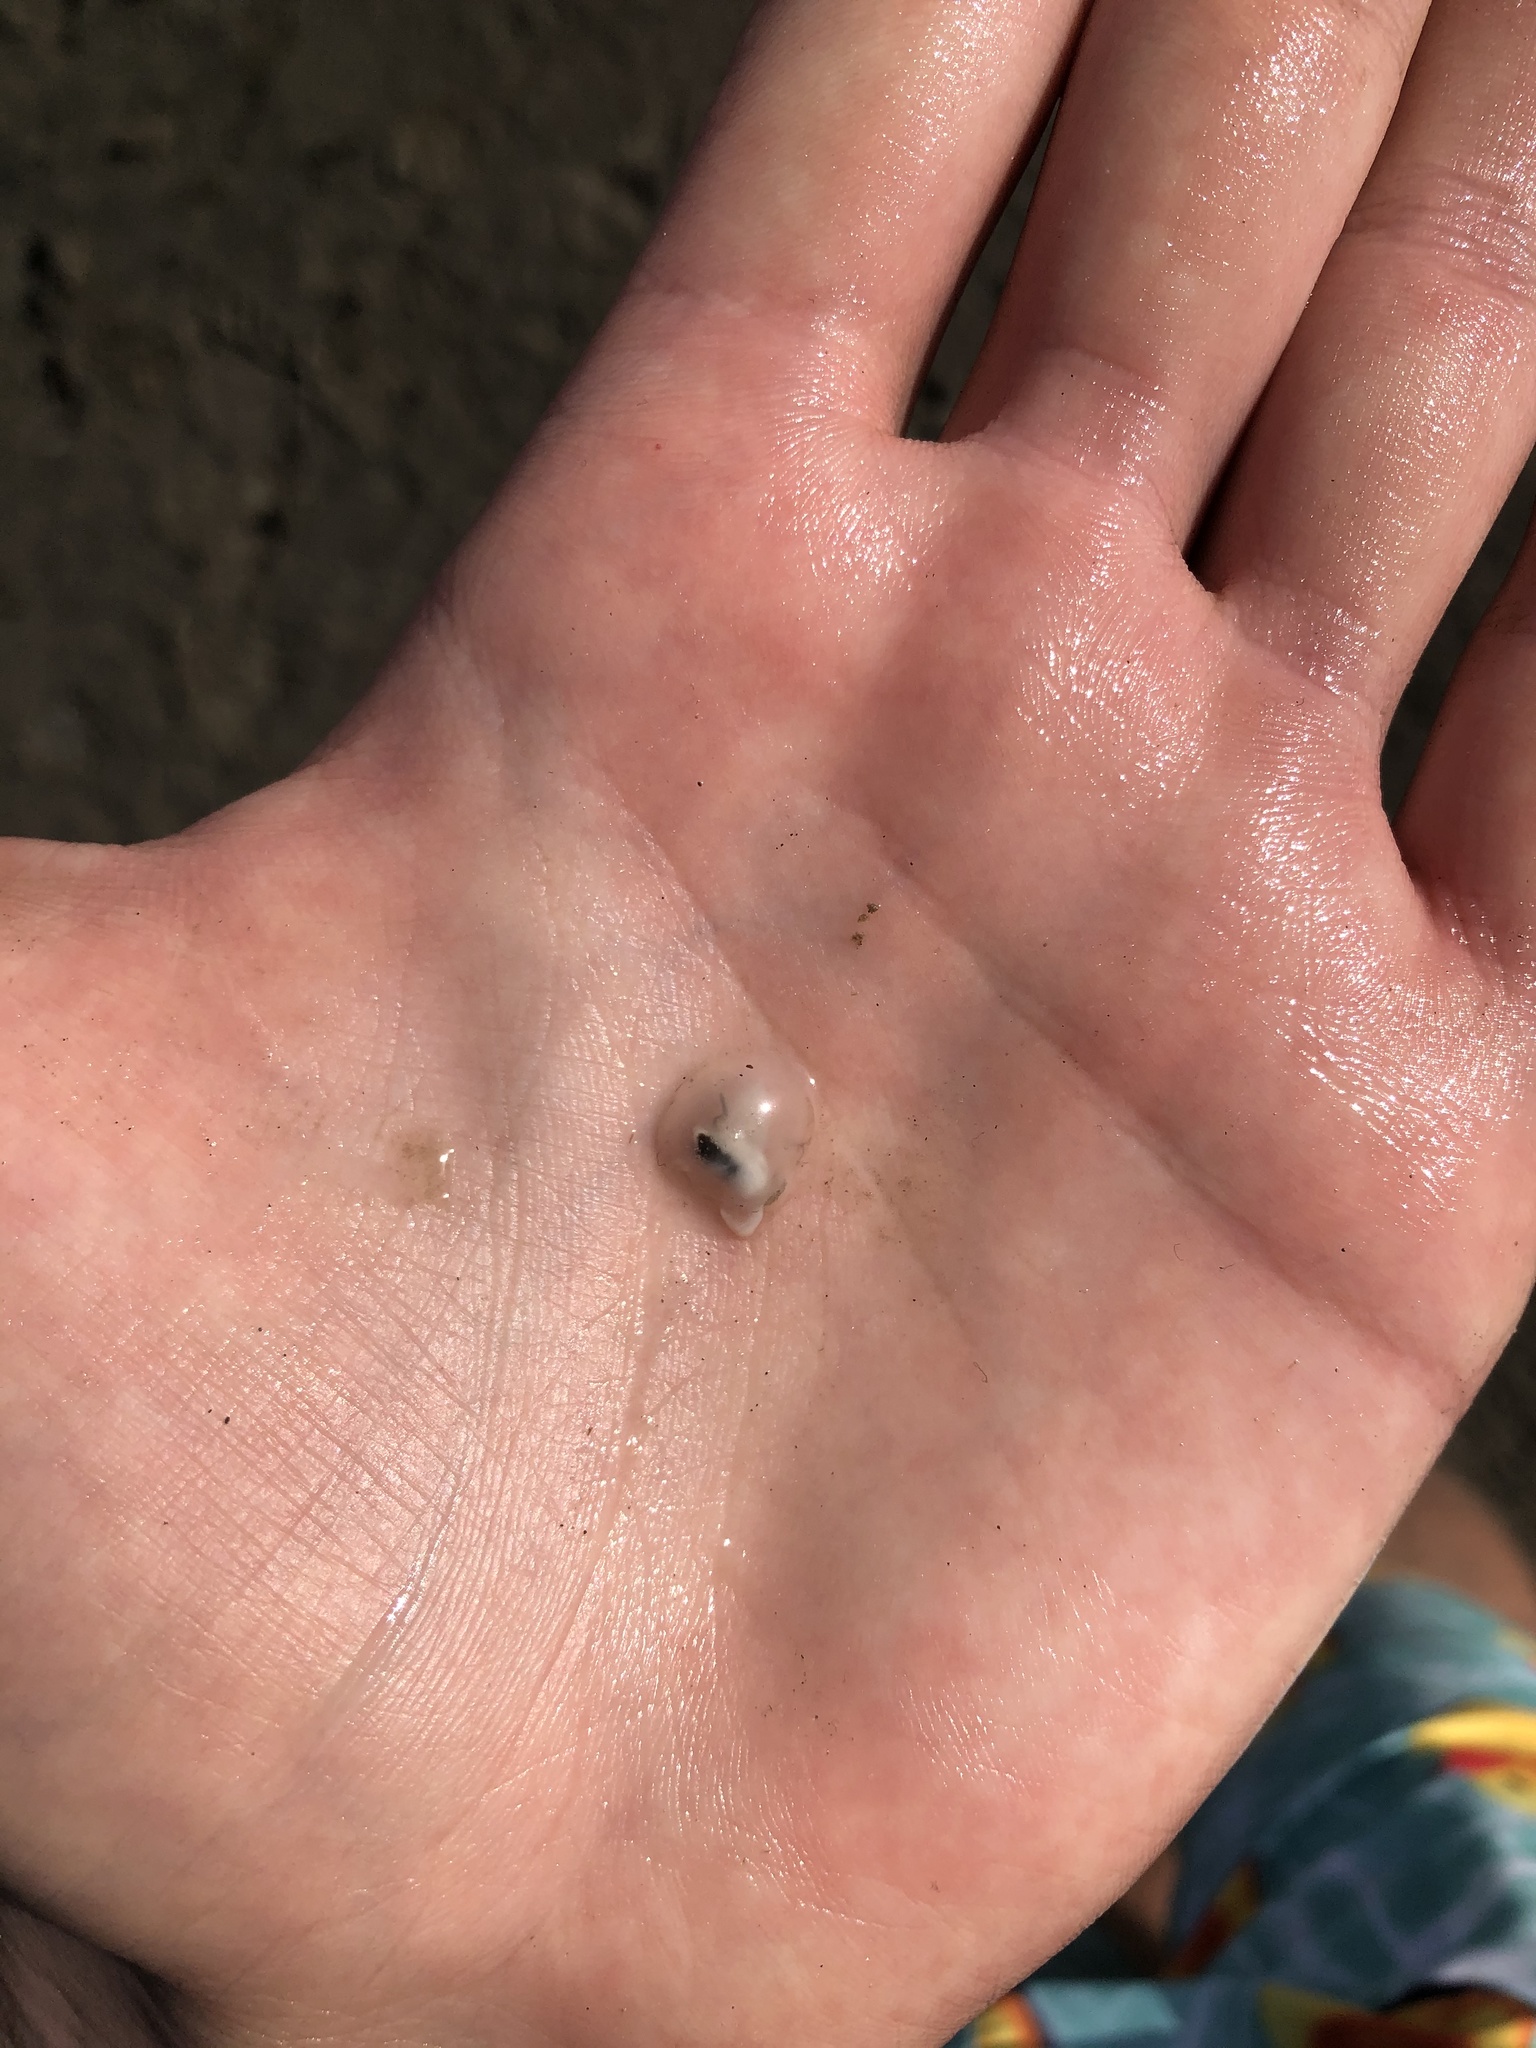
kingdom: Animalia
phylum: Mollusca
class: Bivalvia
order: Galeommatida
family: Galeommatidae
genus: Divariscintilla
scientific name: Divariscintilla yoyo
